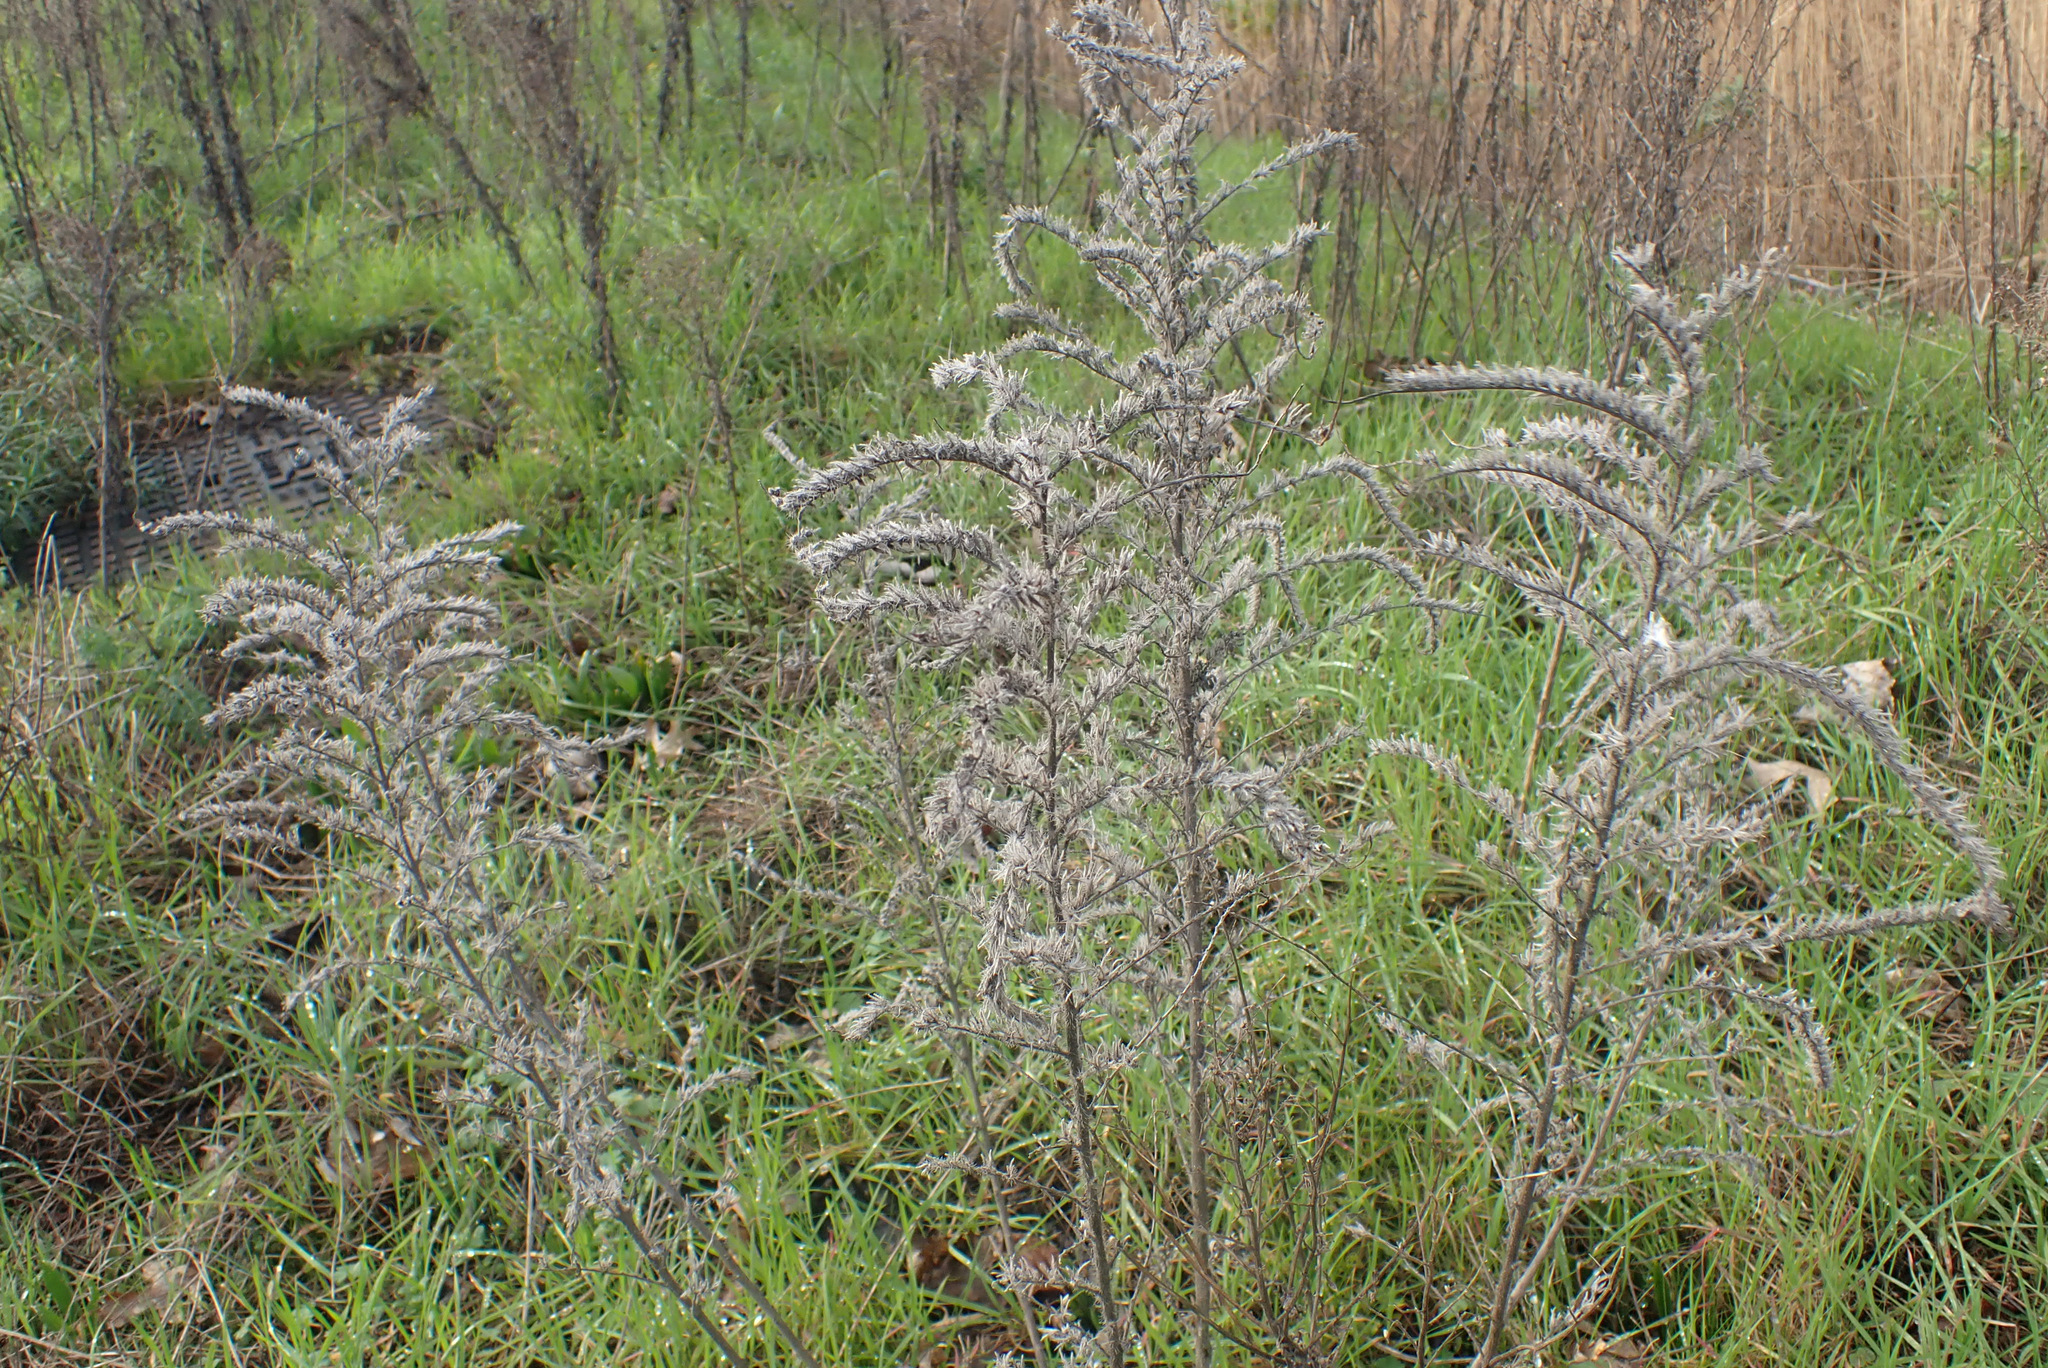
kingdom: Plantae
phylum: Tracheophyta
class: Magnoliopsida
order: Boraginales
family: Boraginaceae
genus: Echium
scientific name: Echium vulgare
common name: Common viper's bugloss
